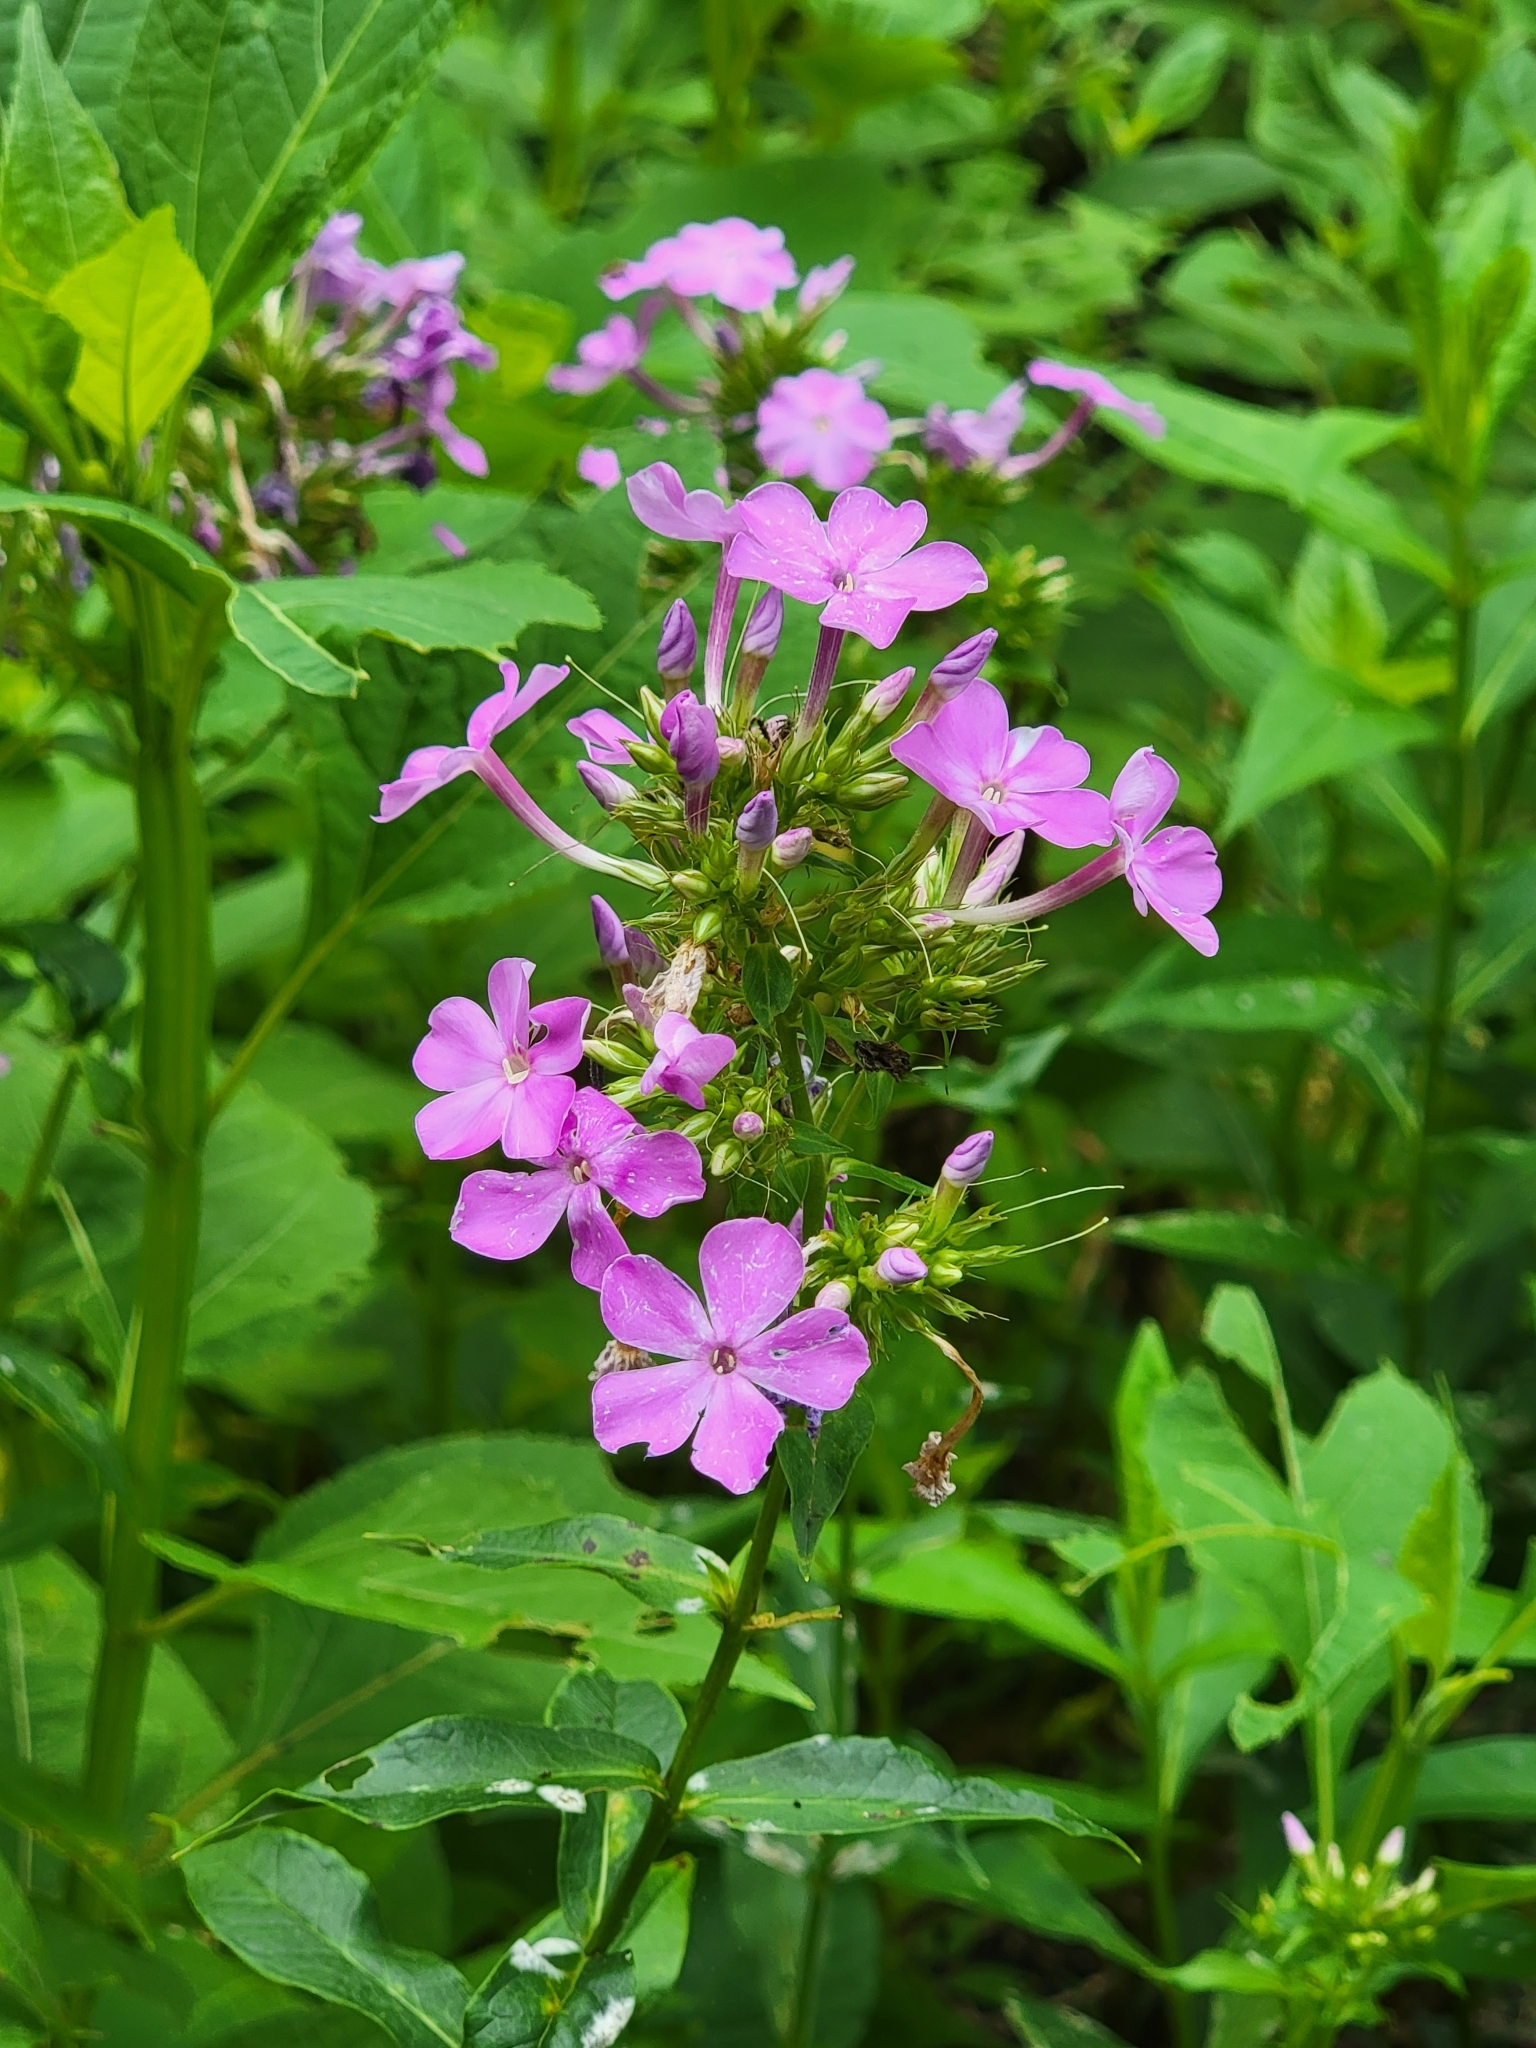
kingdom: Plantae
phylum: Tracheophyta
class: Magnoliopsida
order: Ericales
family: Polemoniaceae
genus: Phlox
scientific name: Phlox paniculata
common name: Fall phlox
